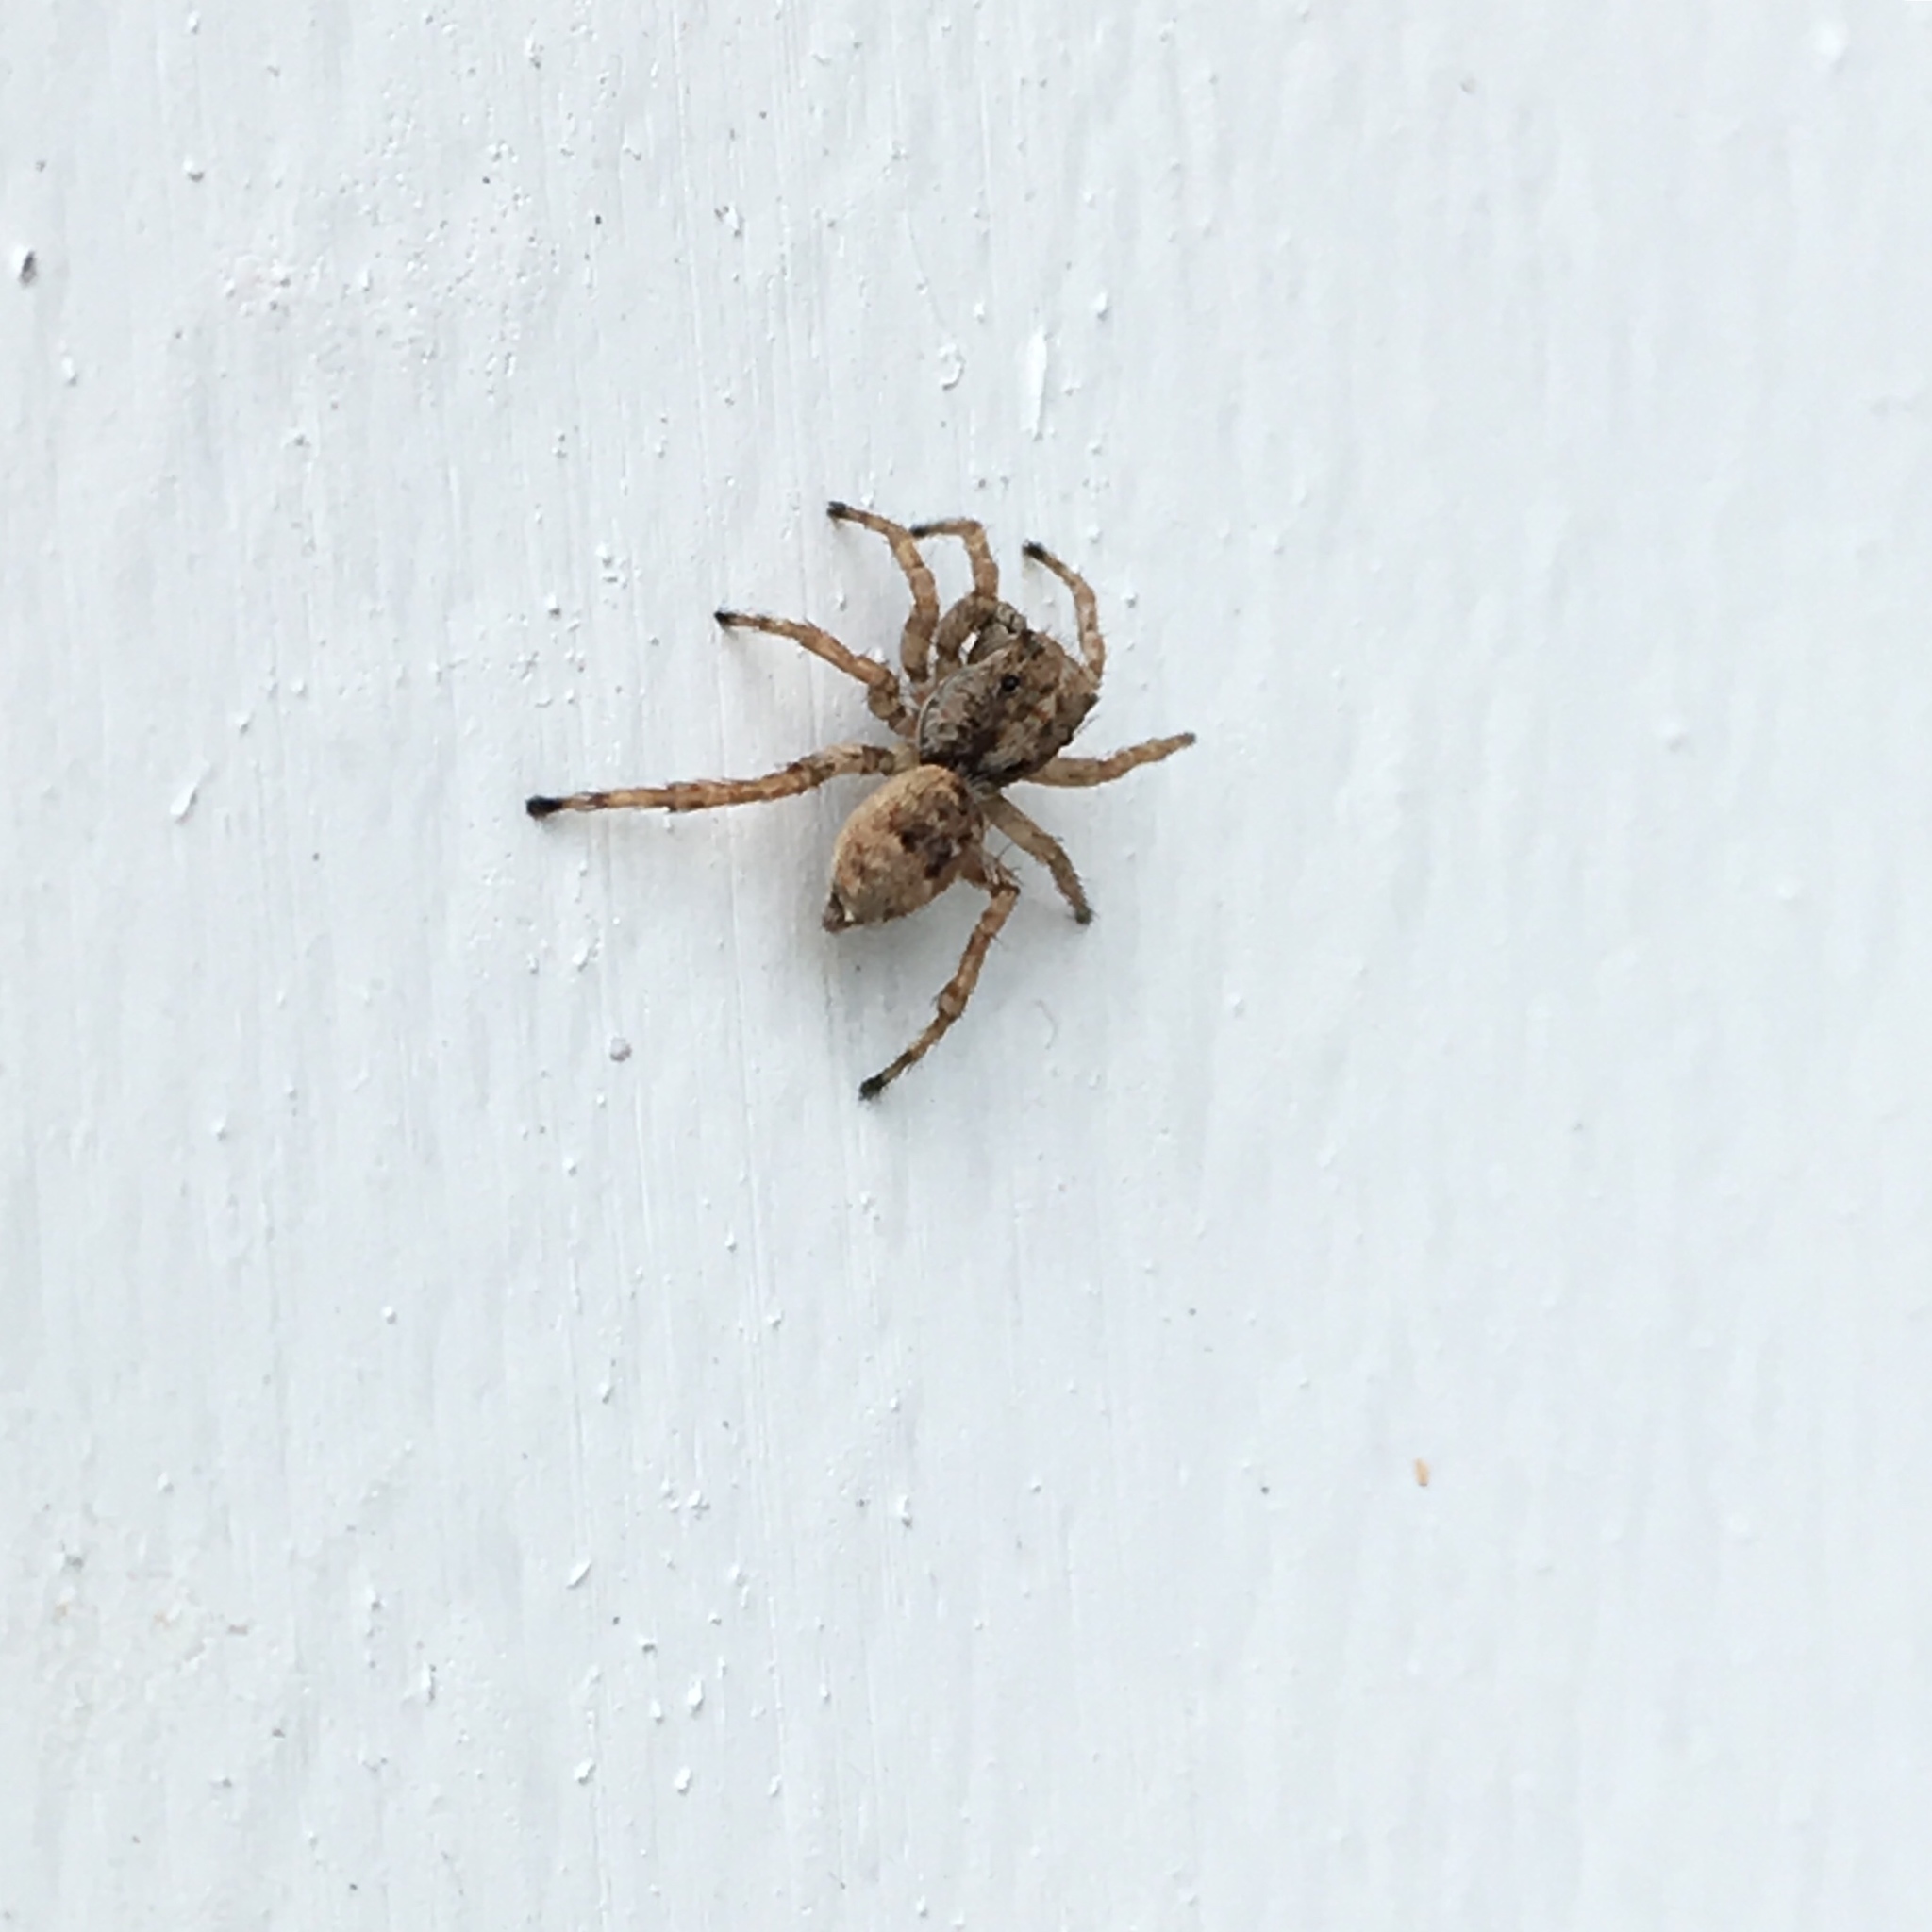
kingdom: Animalia
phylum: Arthropoda
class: Arachnida
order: Araneae
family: Salticidae
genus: Attulus
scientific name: Attulus fasciger
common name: Asiatic wall jumping spider
